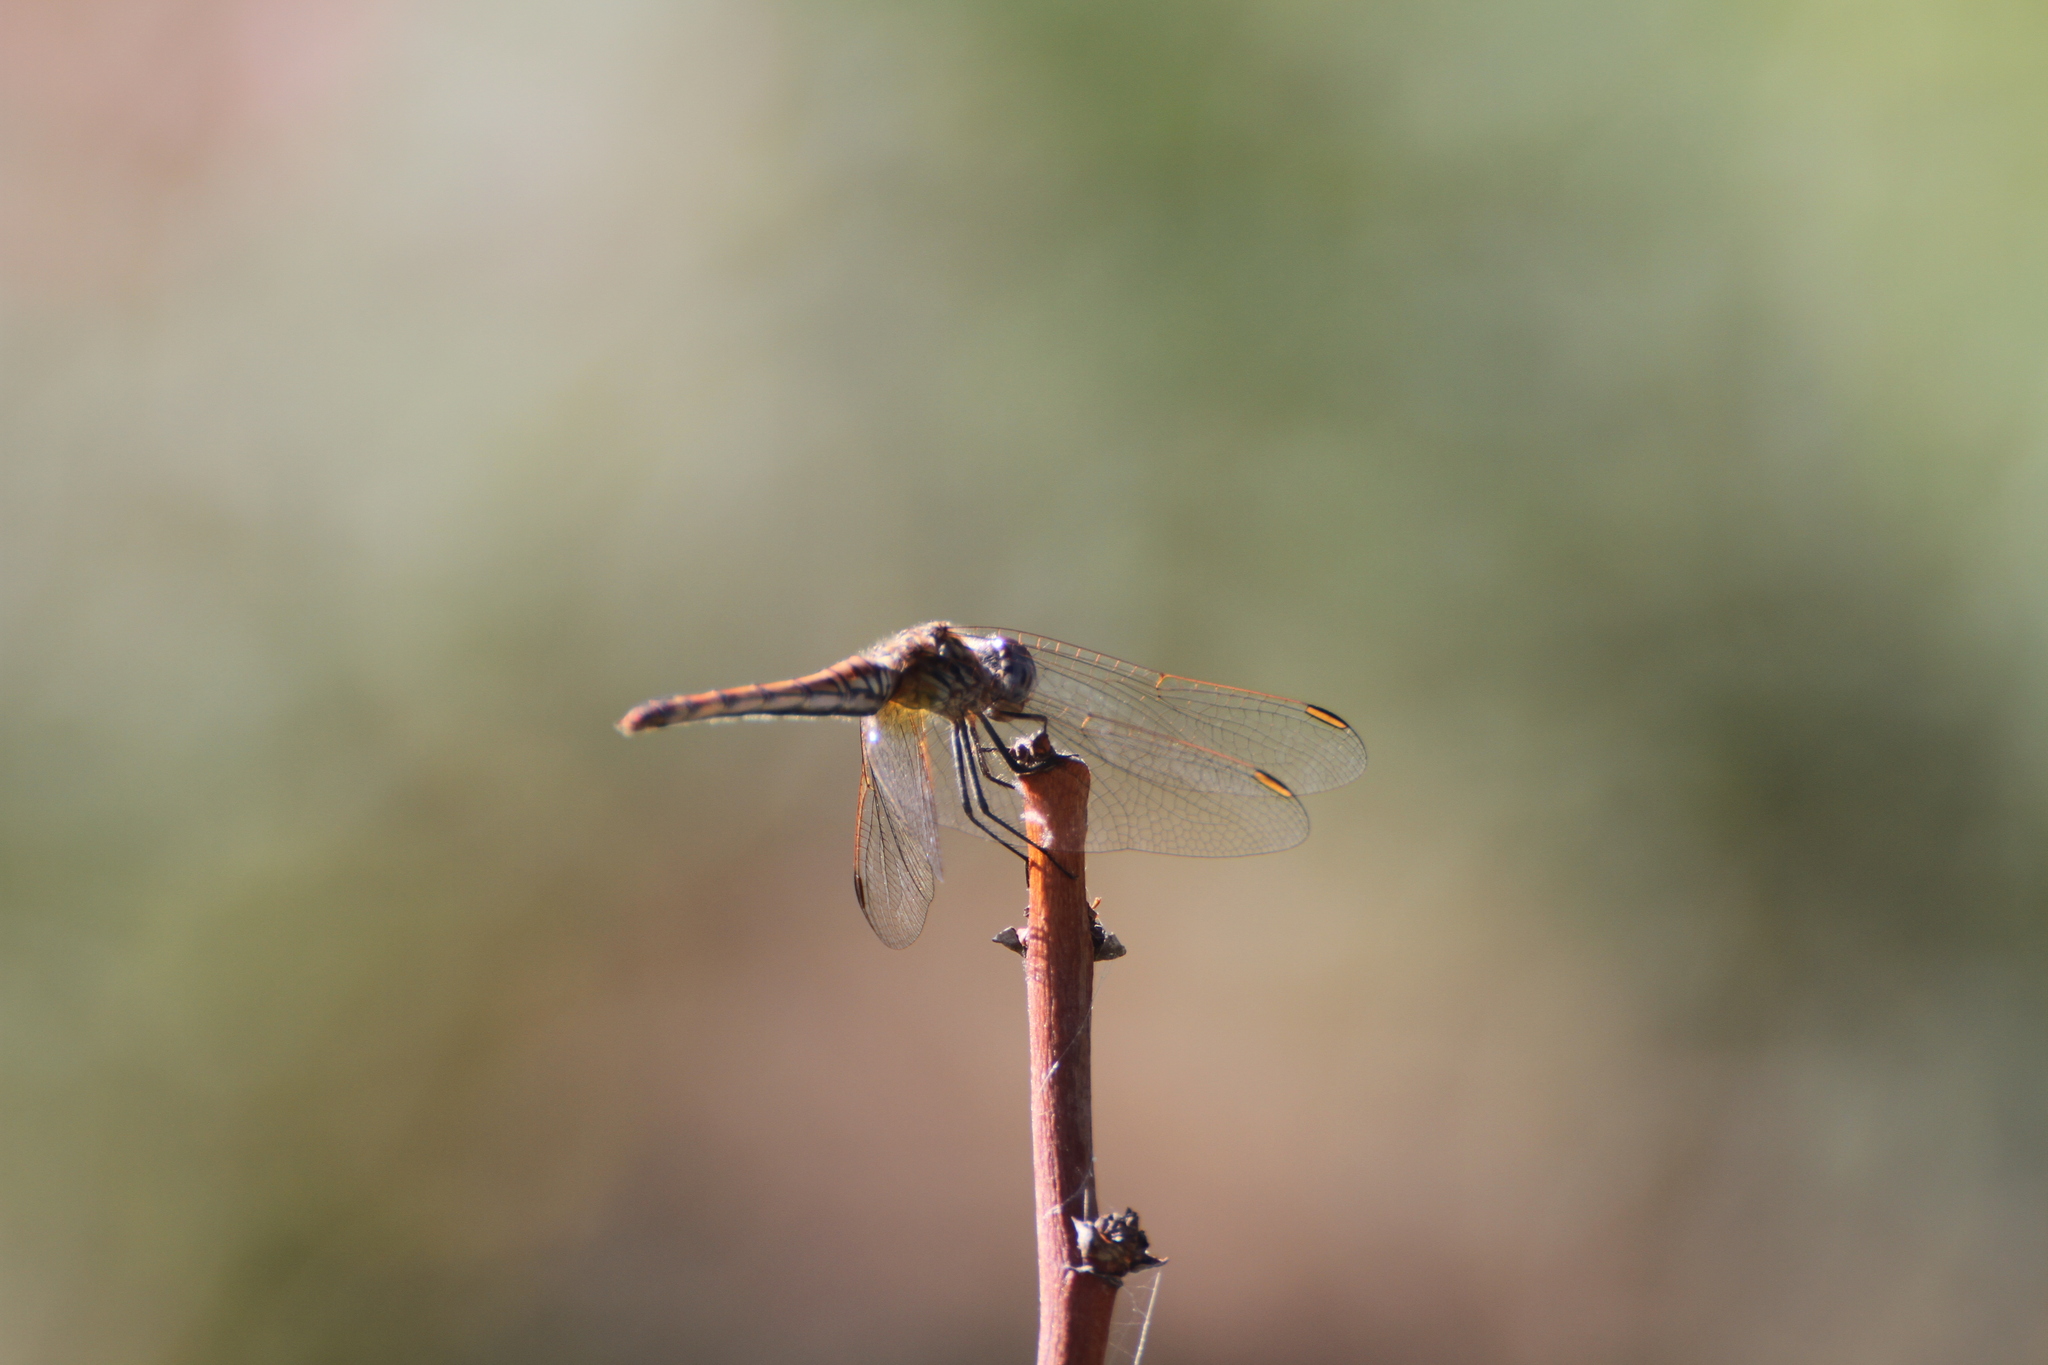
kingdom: Animalia
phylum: Arthropoda
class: Insecta
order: Odonata
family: Libellulidae
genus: Trithemis
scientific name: Trithemis annulata
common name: Violet dropwing
